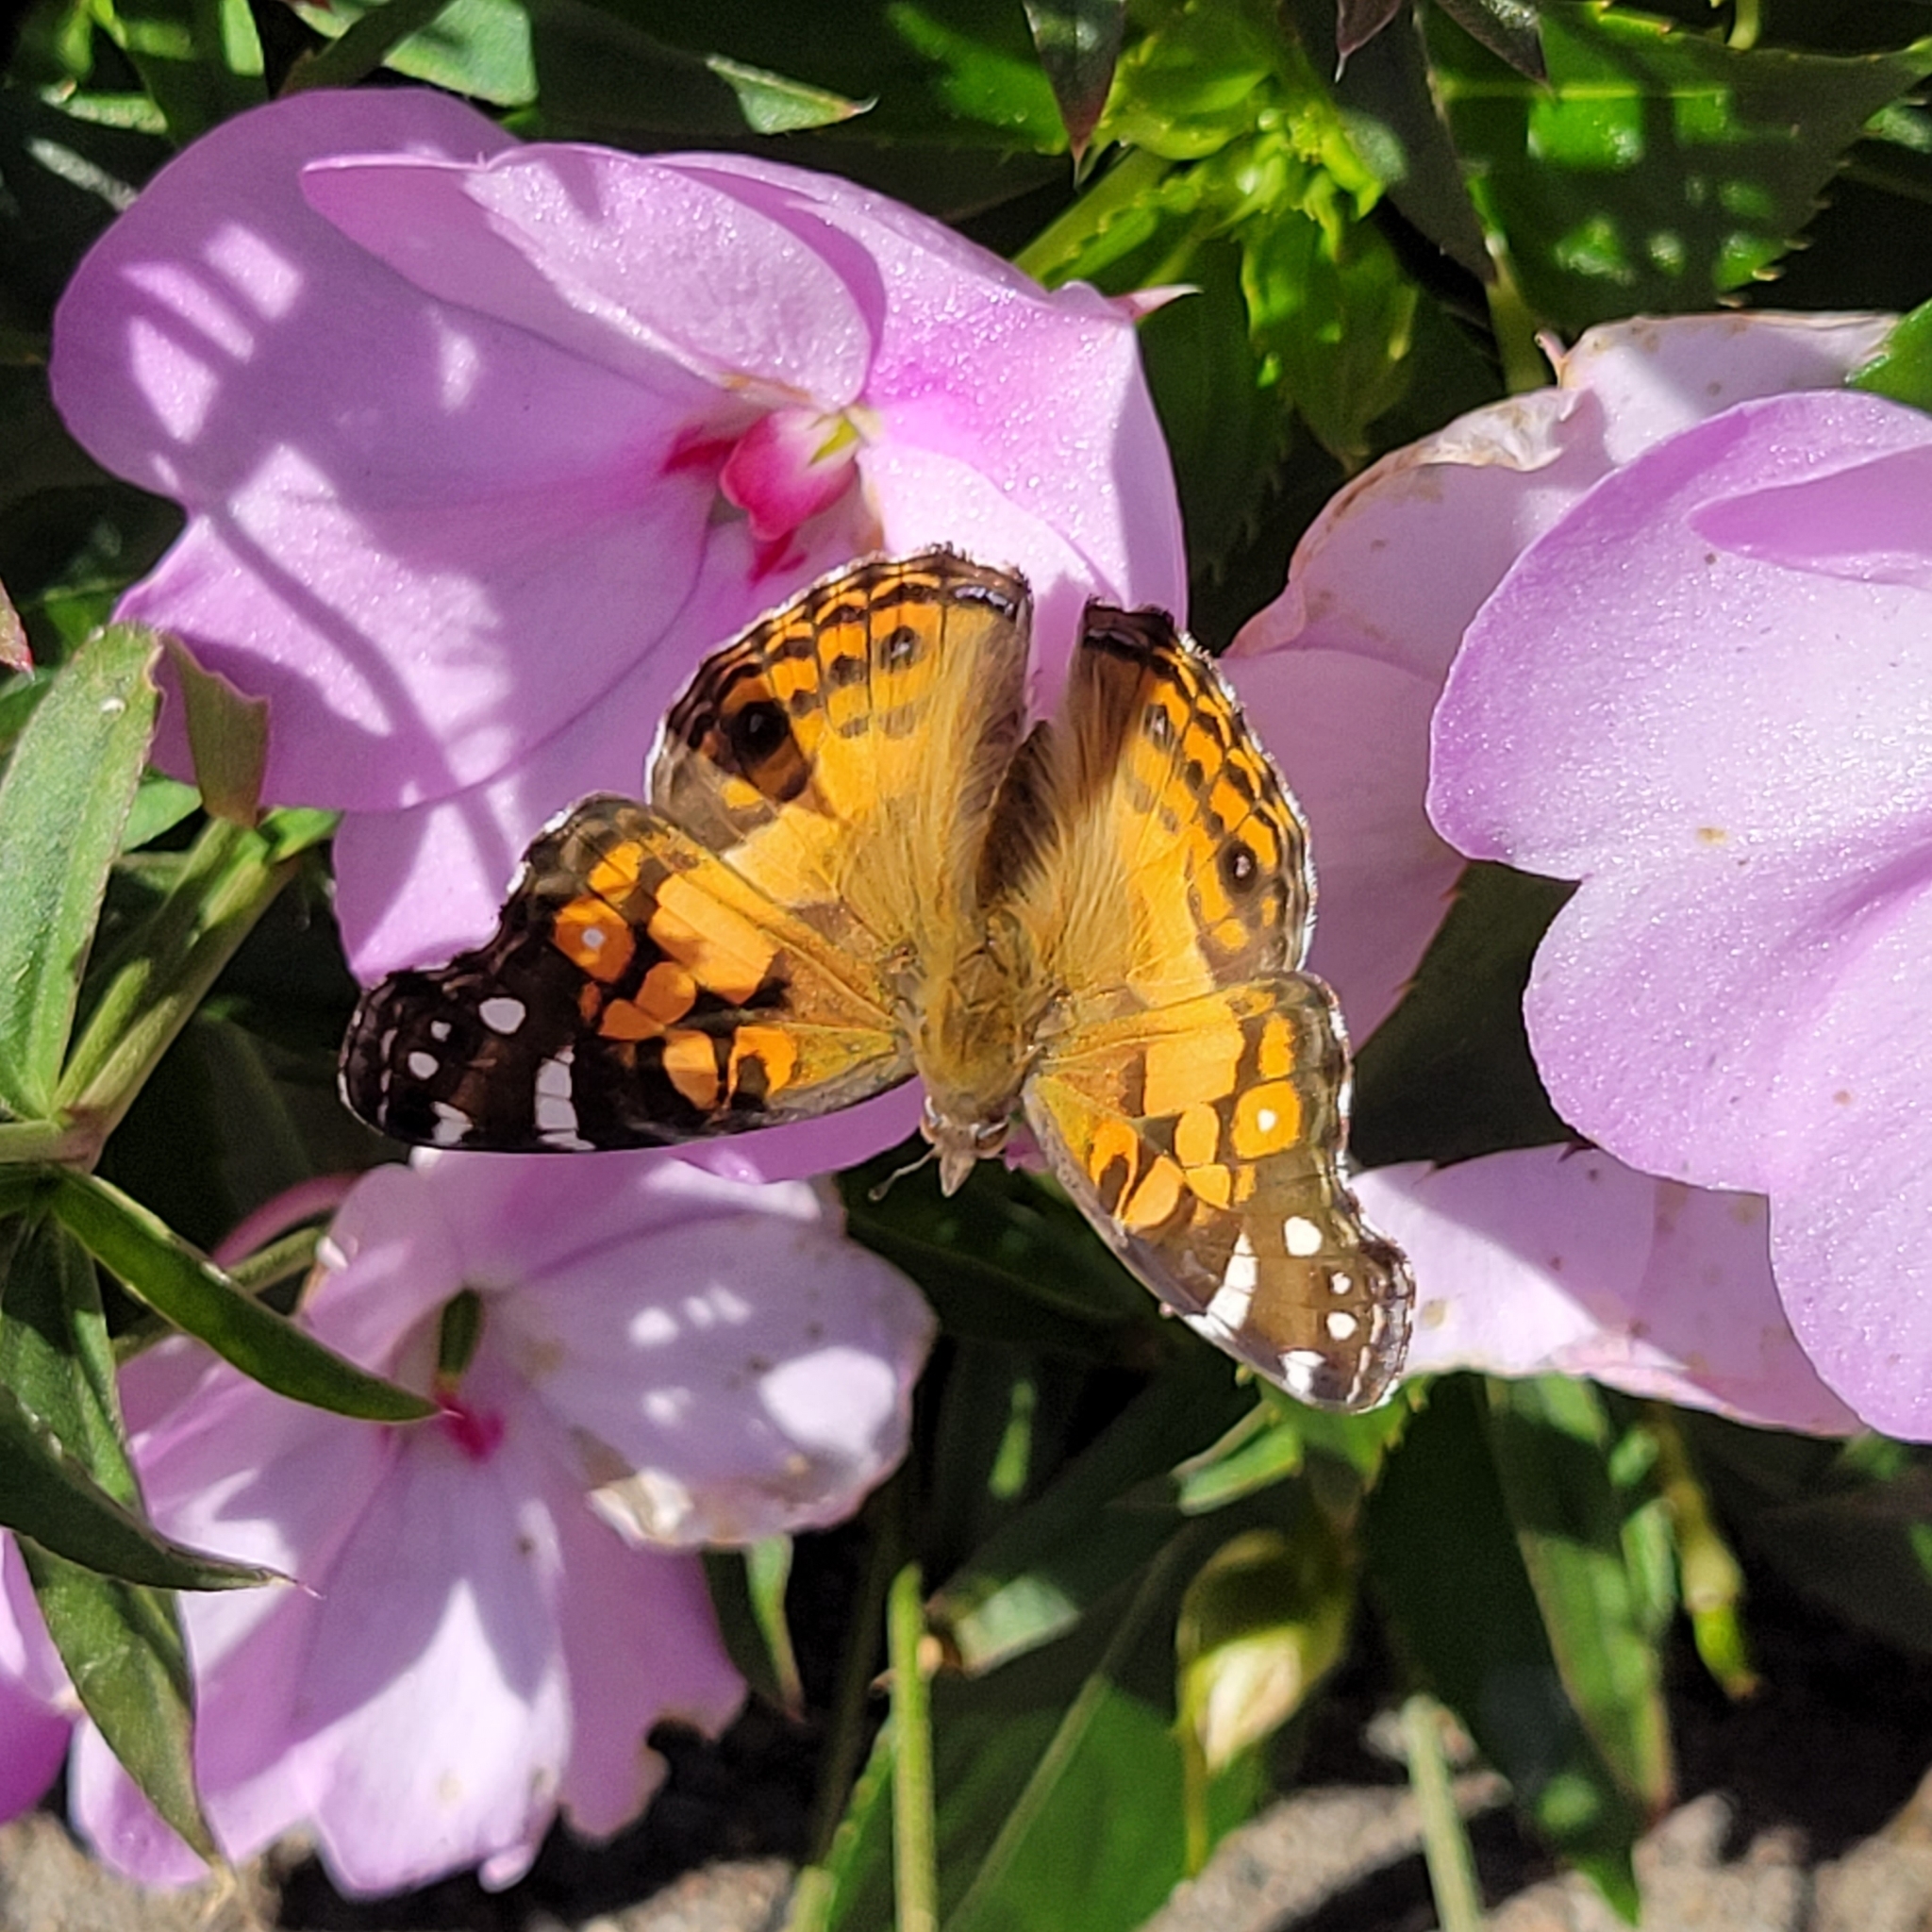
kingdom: Animalia
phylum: Arthropoda
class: Insecta
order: Lepidoptera
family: Nymphalidae
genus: Vanessa
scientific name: Vanessa virginiensis
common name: American lady
